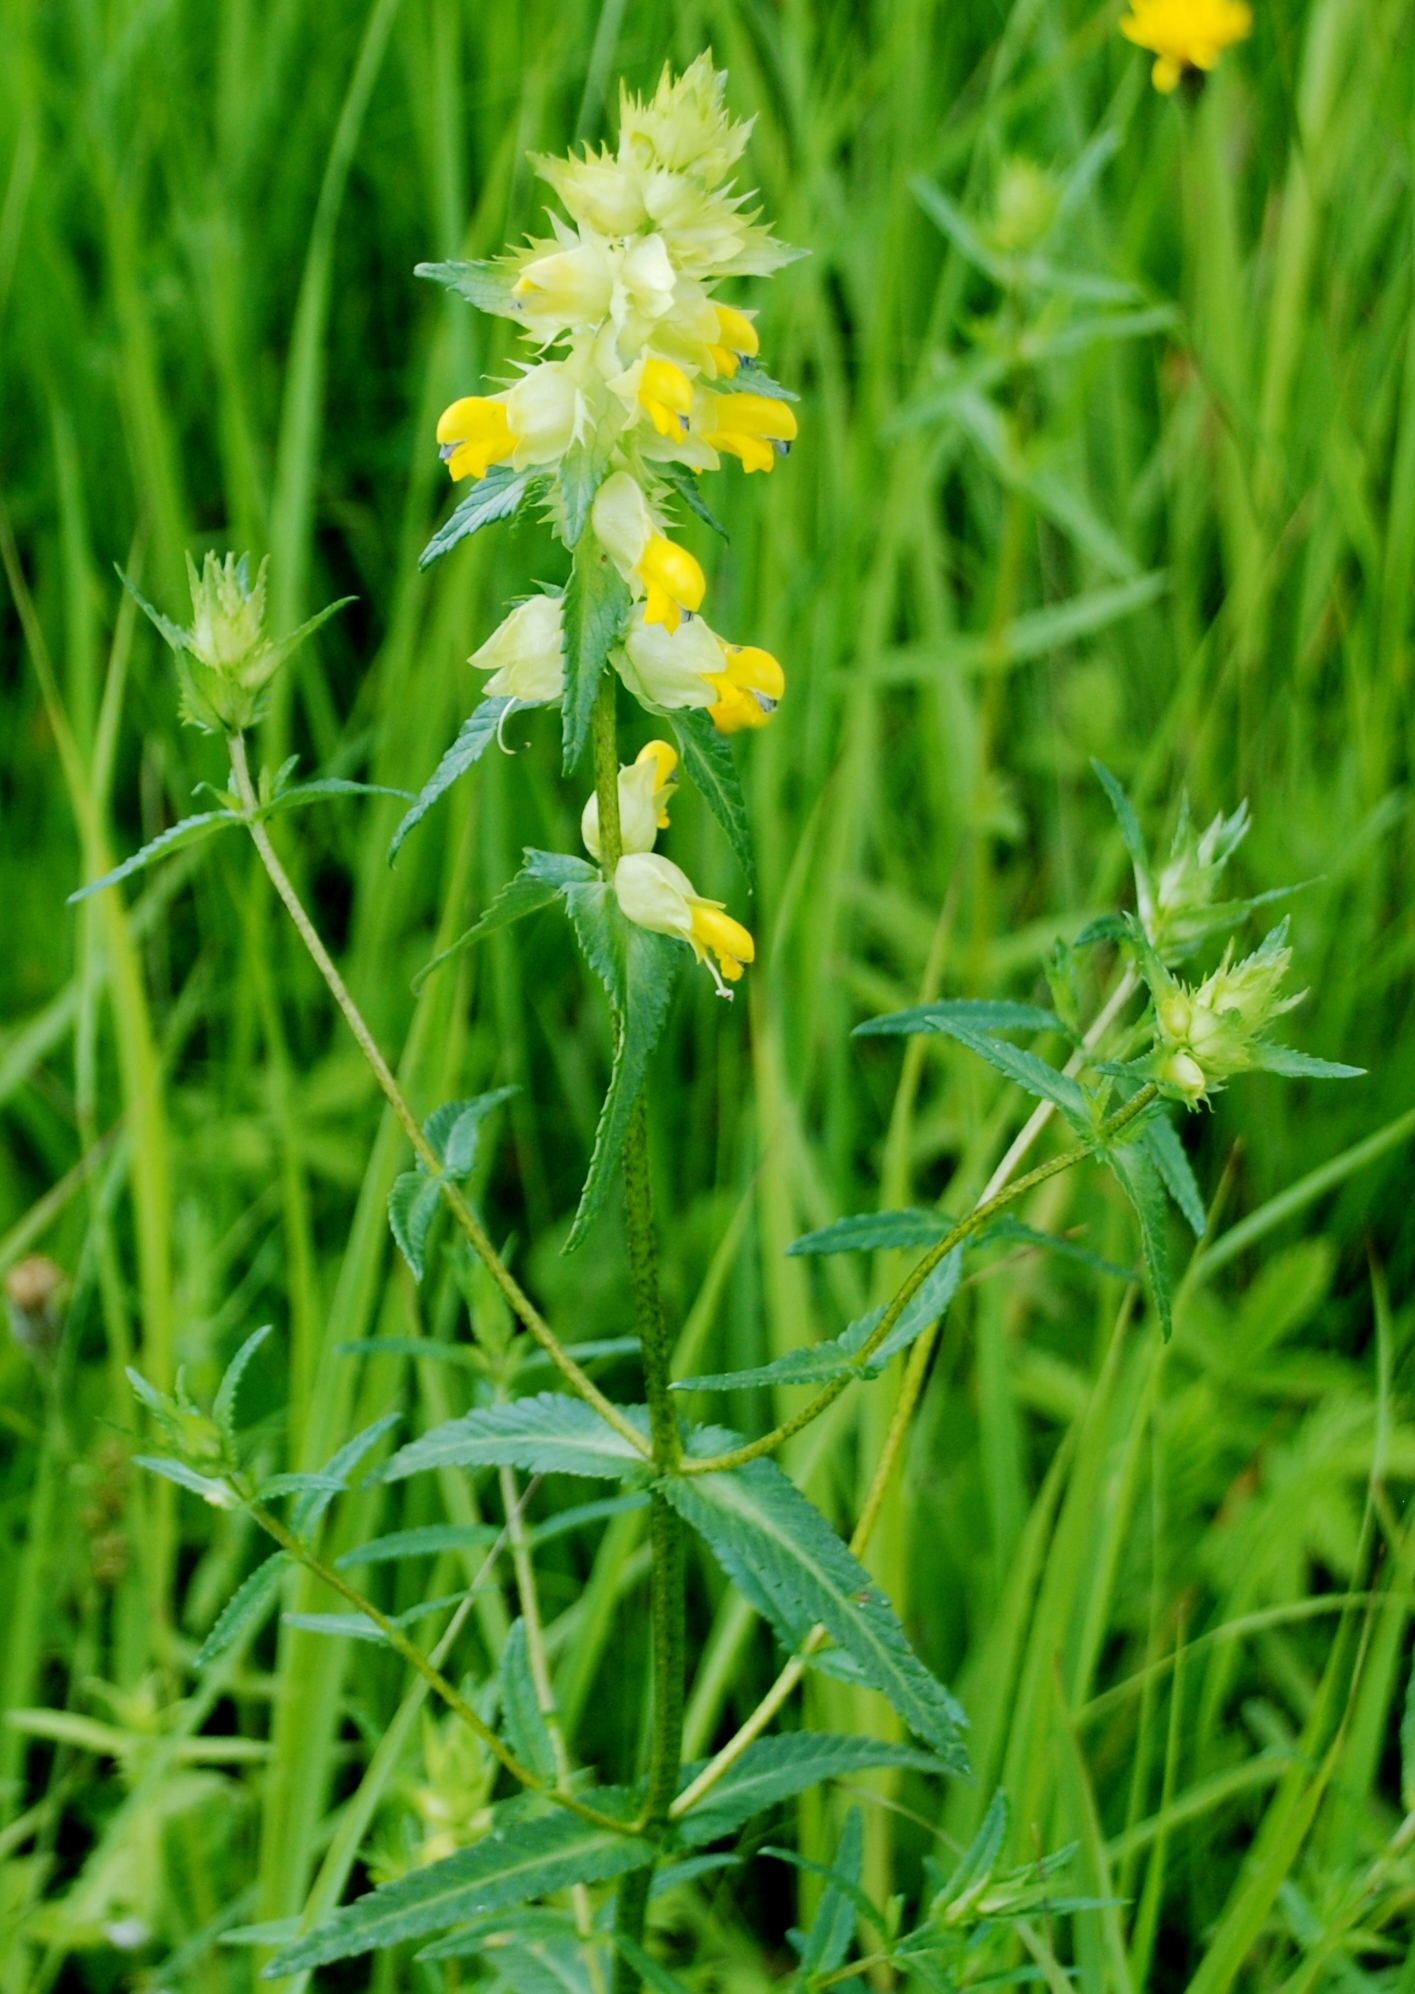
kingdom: Plantae
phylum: Tracheophyta
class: Magnoliopsida
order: Lamiales
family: Orobanchaceae
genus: Rhinanthus
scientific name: Rhinanthus serotinus
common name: Late-flowering yellow rattle
